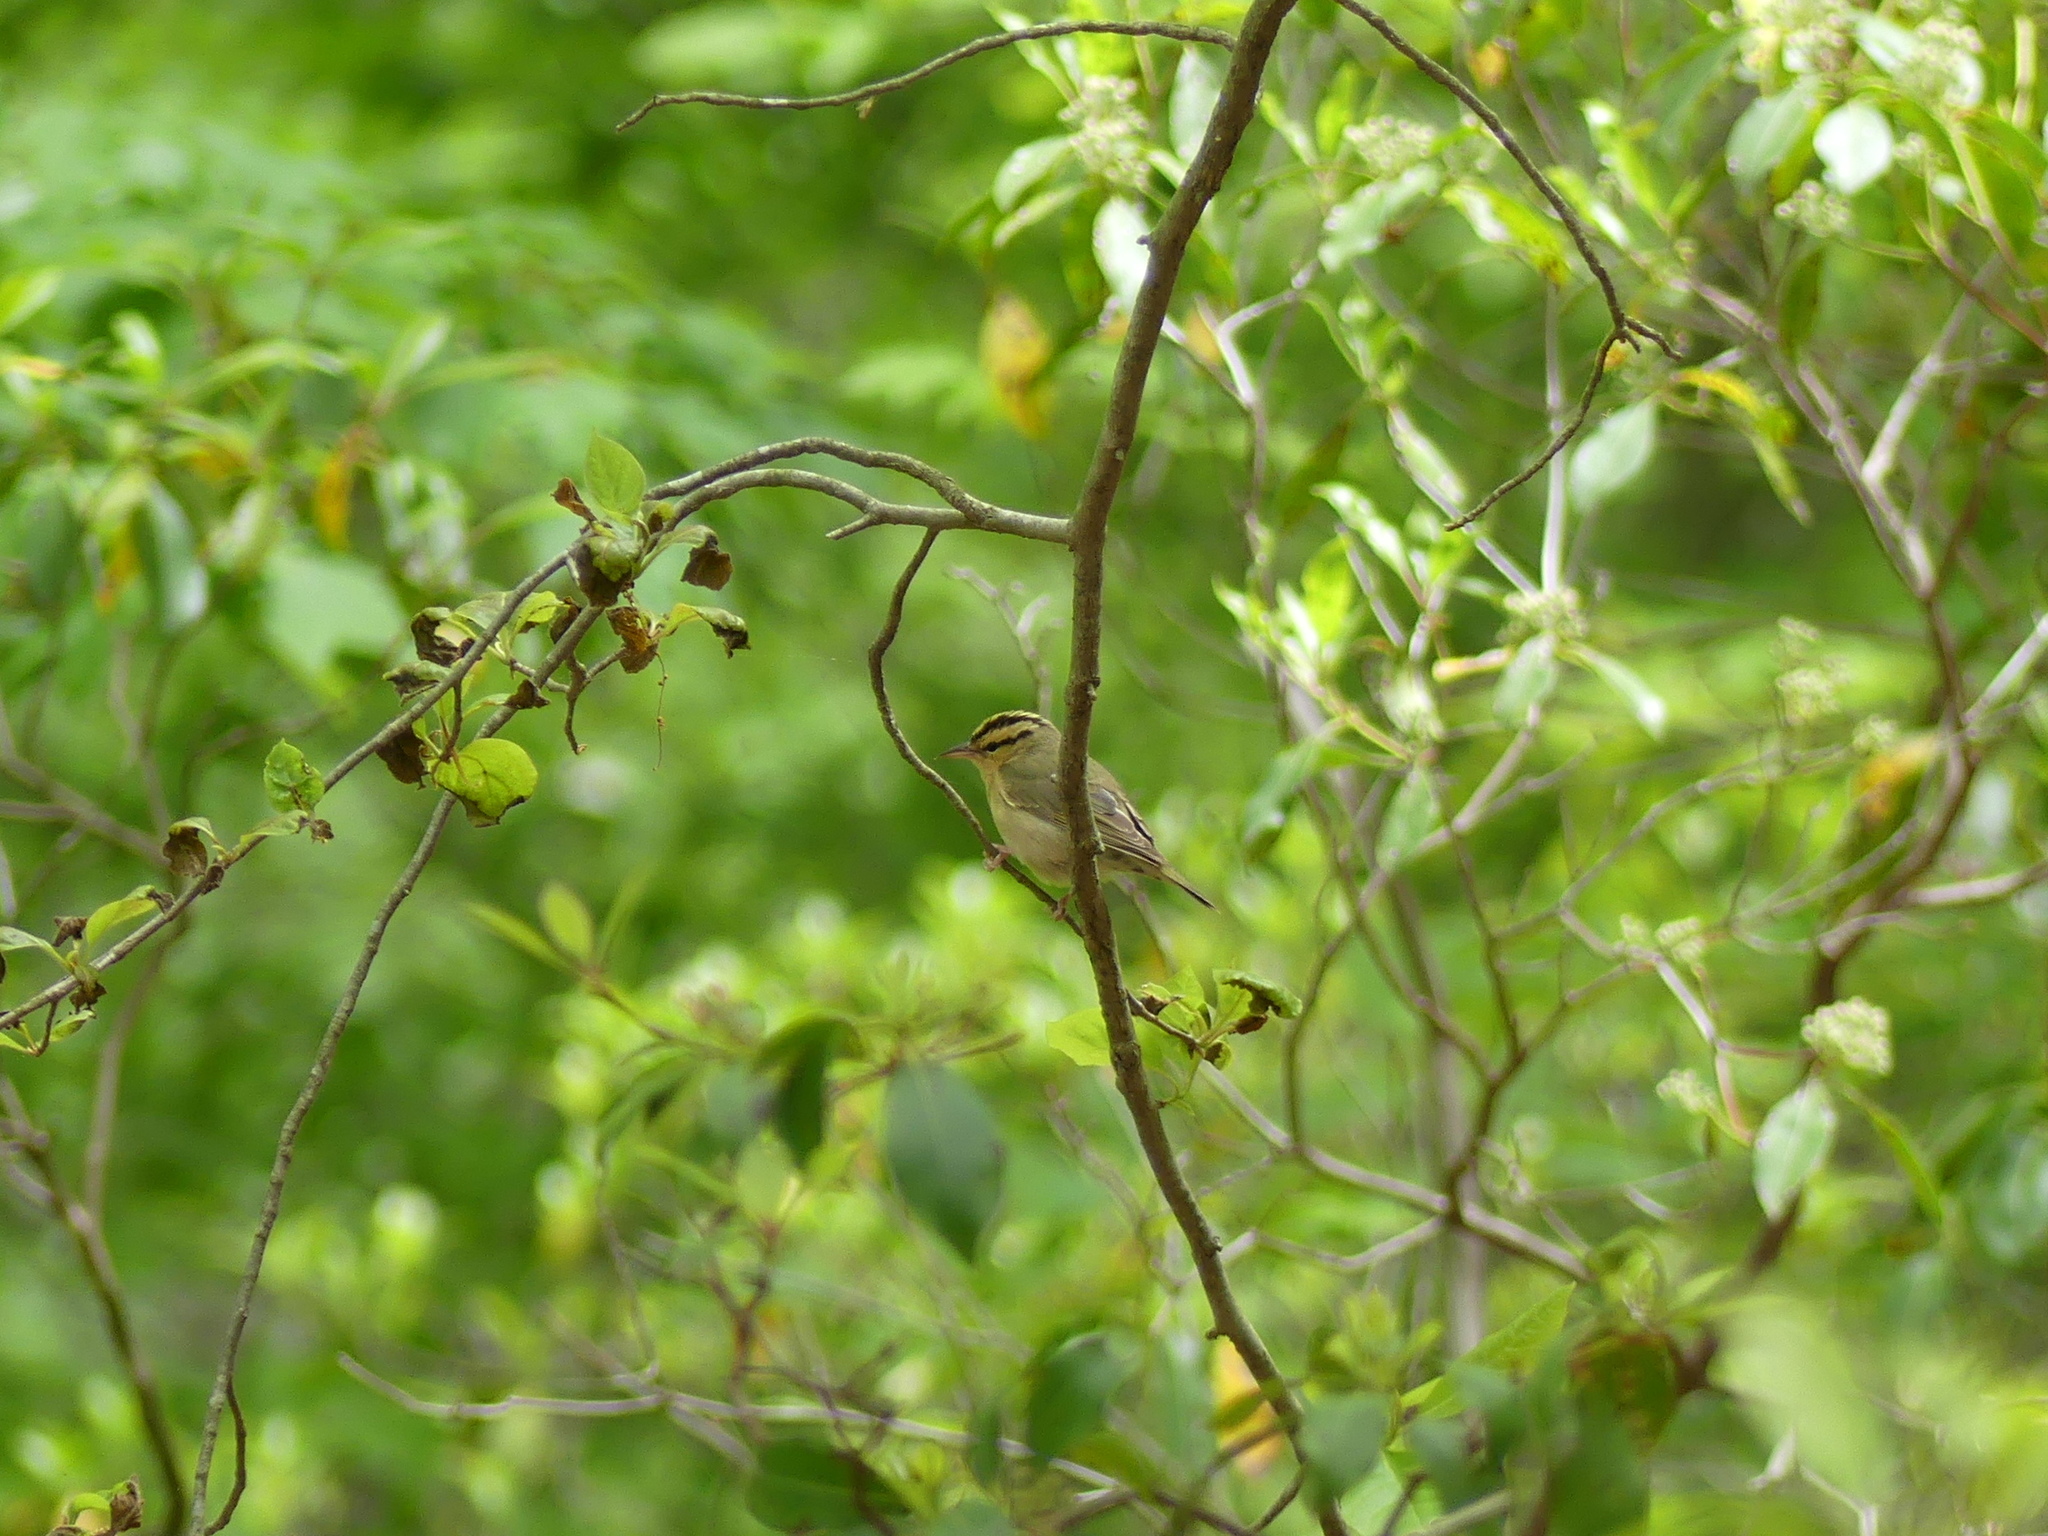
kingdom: Animalia
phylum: Chordata
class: Aves
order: Passeriformes
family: Parulidae
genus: Helmitheros
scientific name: Helmitheros vermivorum
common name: Worm-eating warbler
